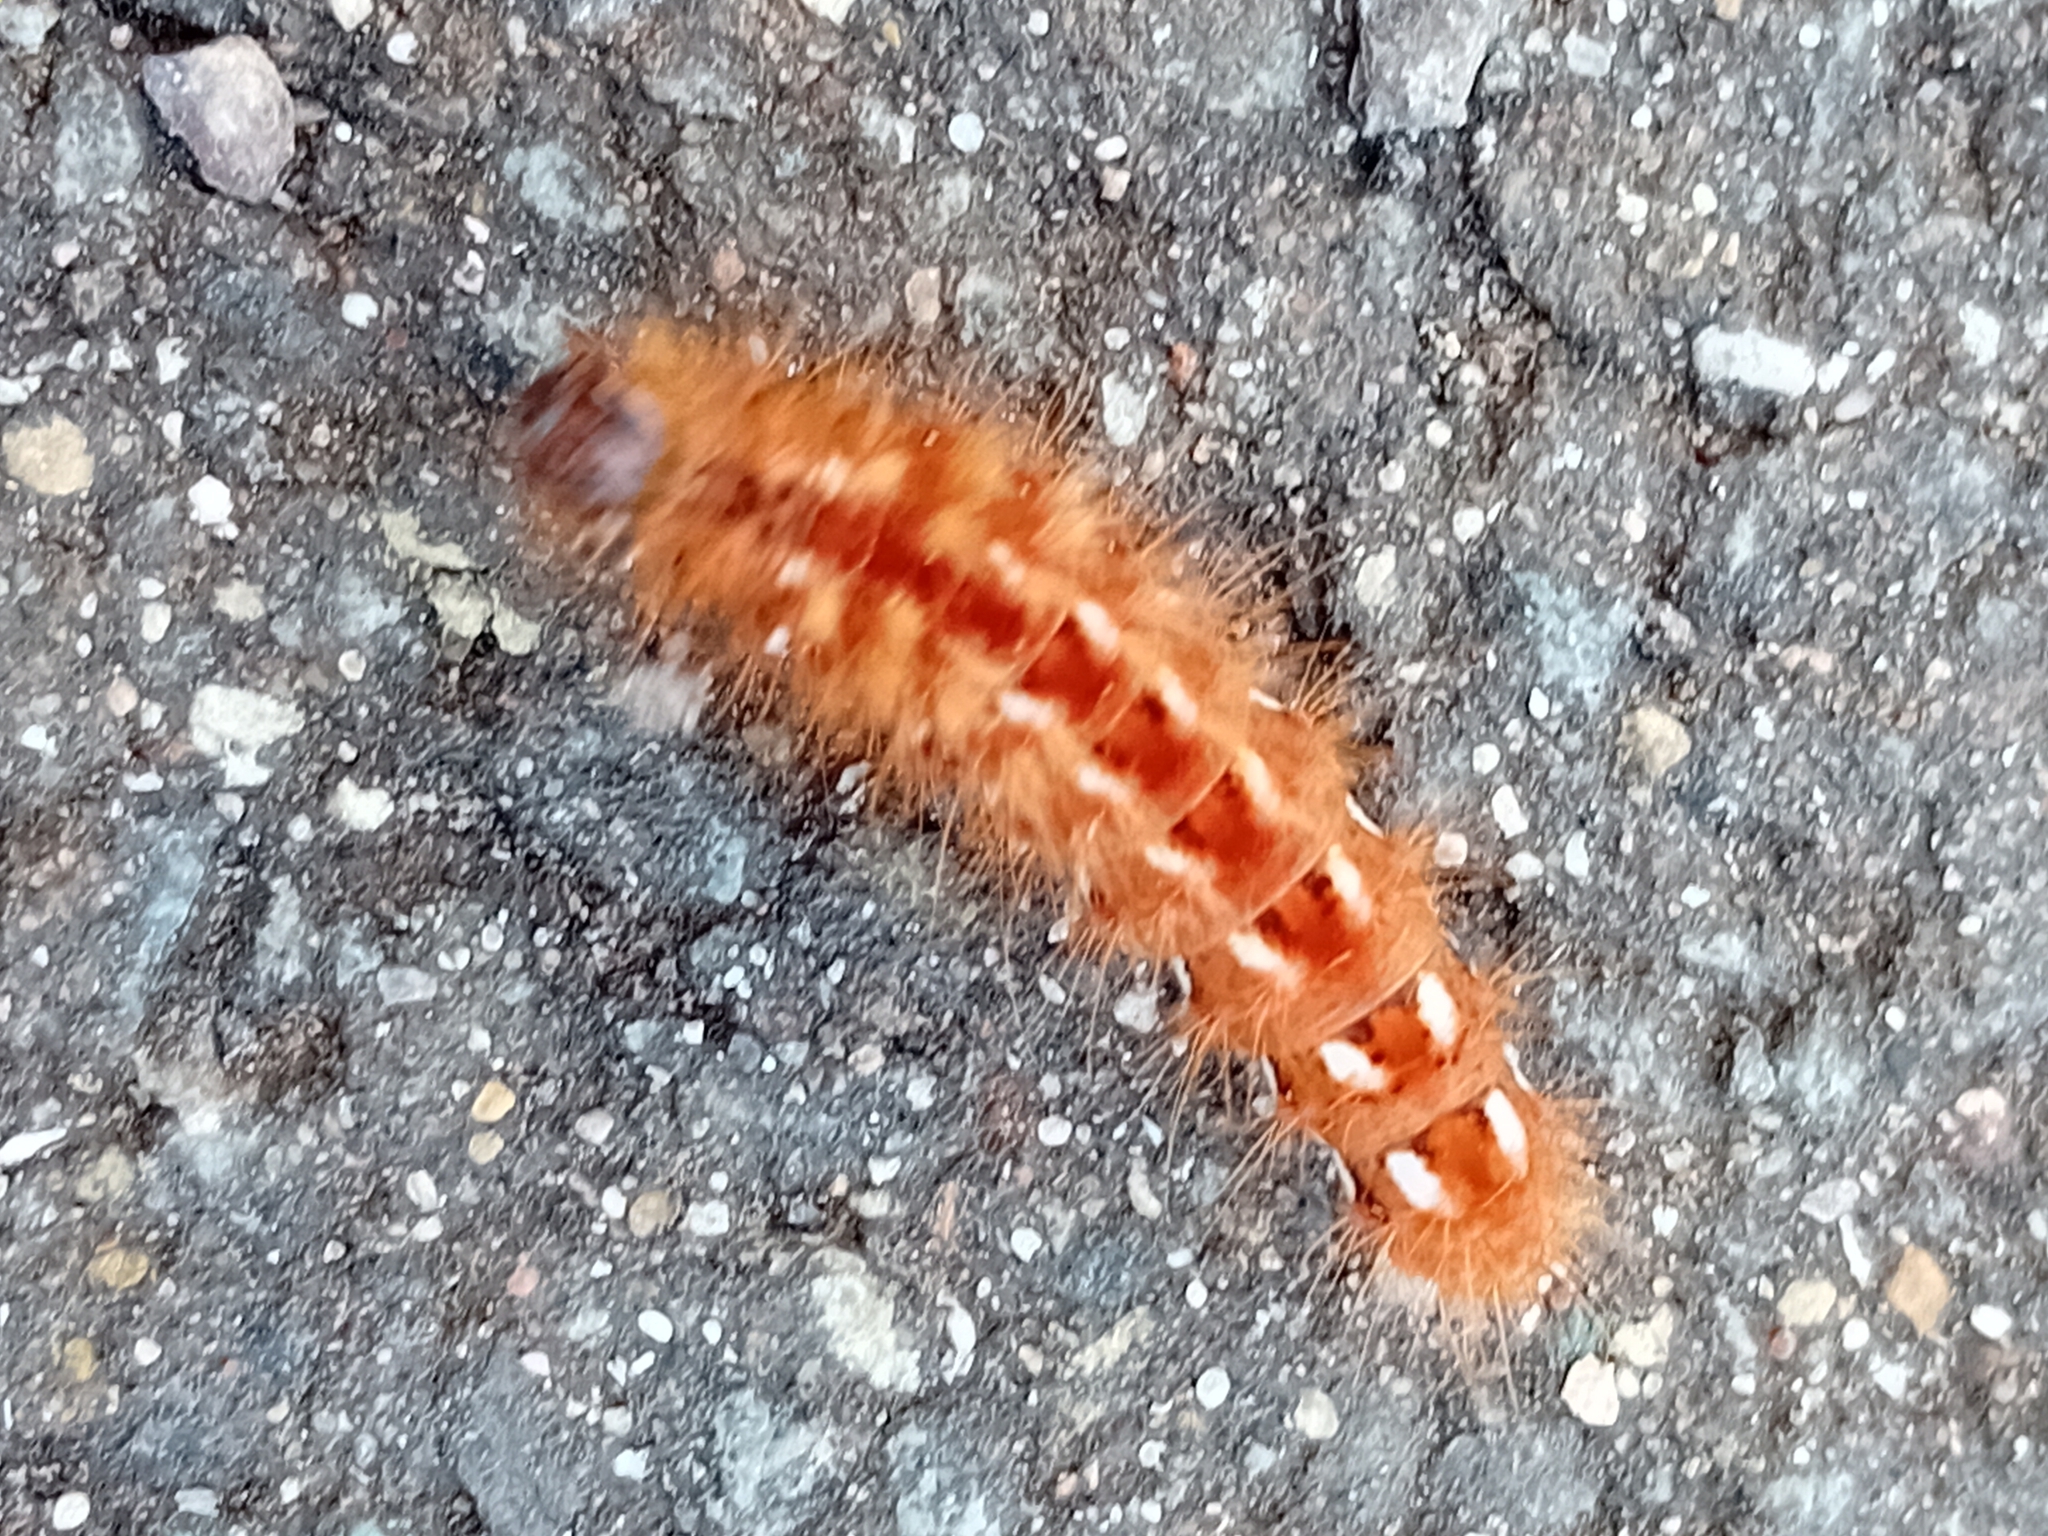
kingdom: Animalia
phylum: Arthropoda
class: Insecta
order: Lepidoptera
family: Noctuidae
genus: Acronicta
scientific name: Acronicta rumicis
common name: Knot grass
